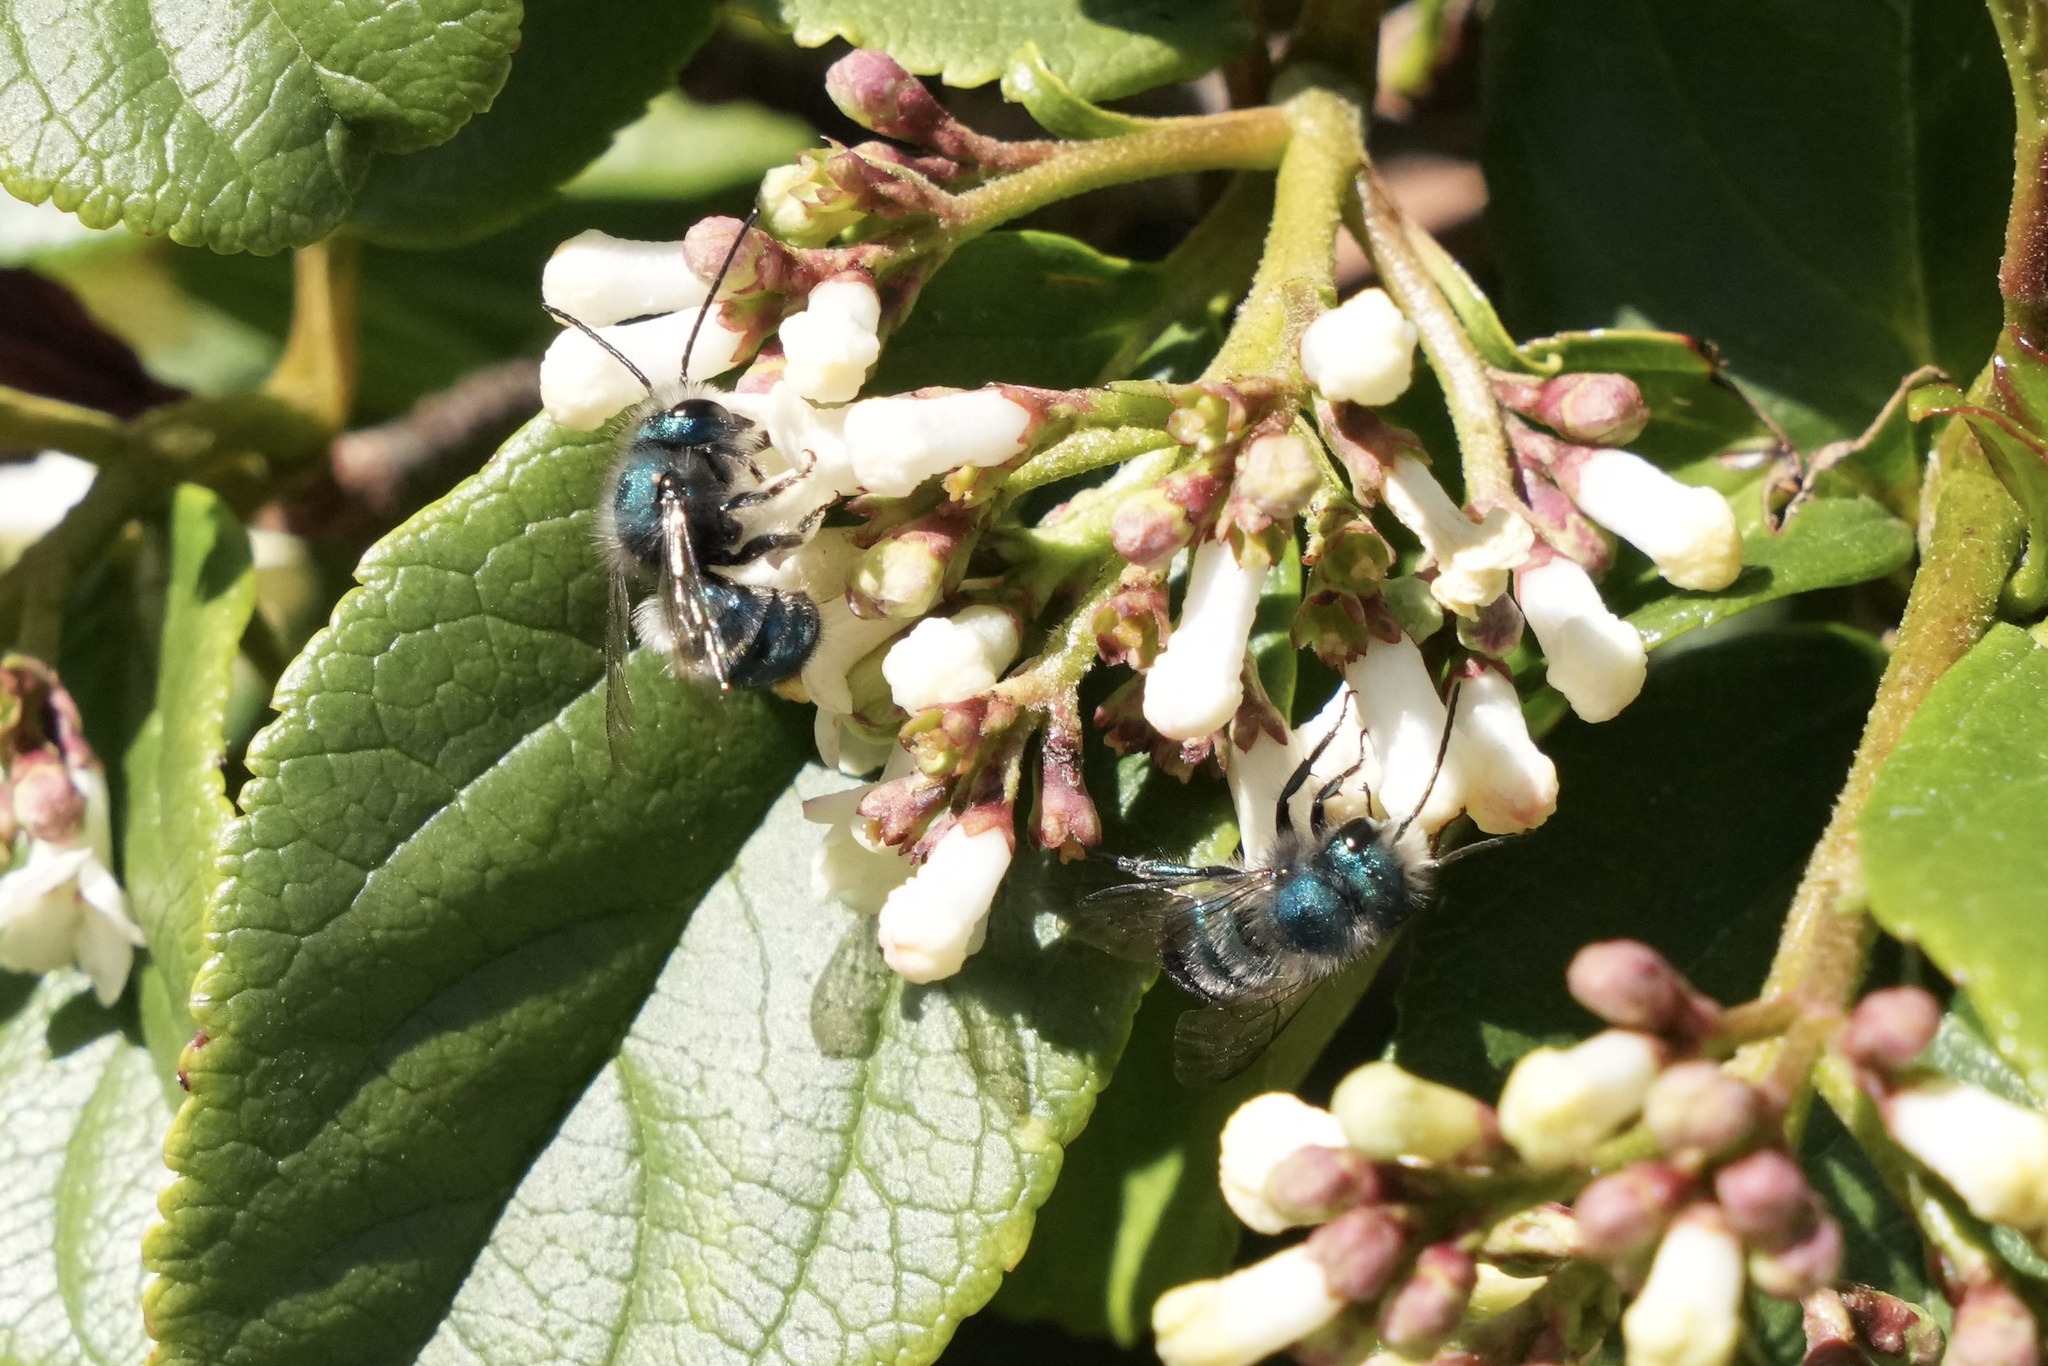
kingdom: Animalia
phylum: Arthropoda
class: Insecta
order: Hymenoptera
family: Megachilidae
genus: Osmia
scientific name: Osmia ribifloris
